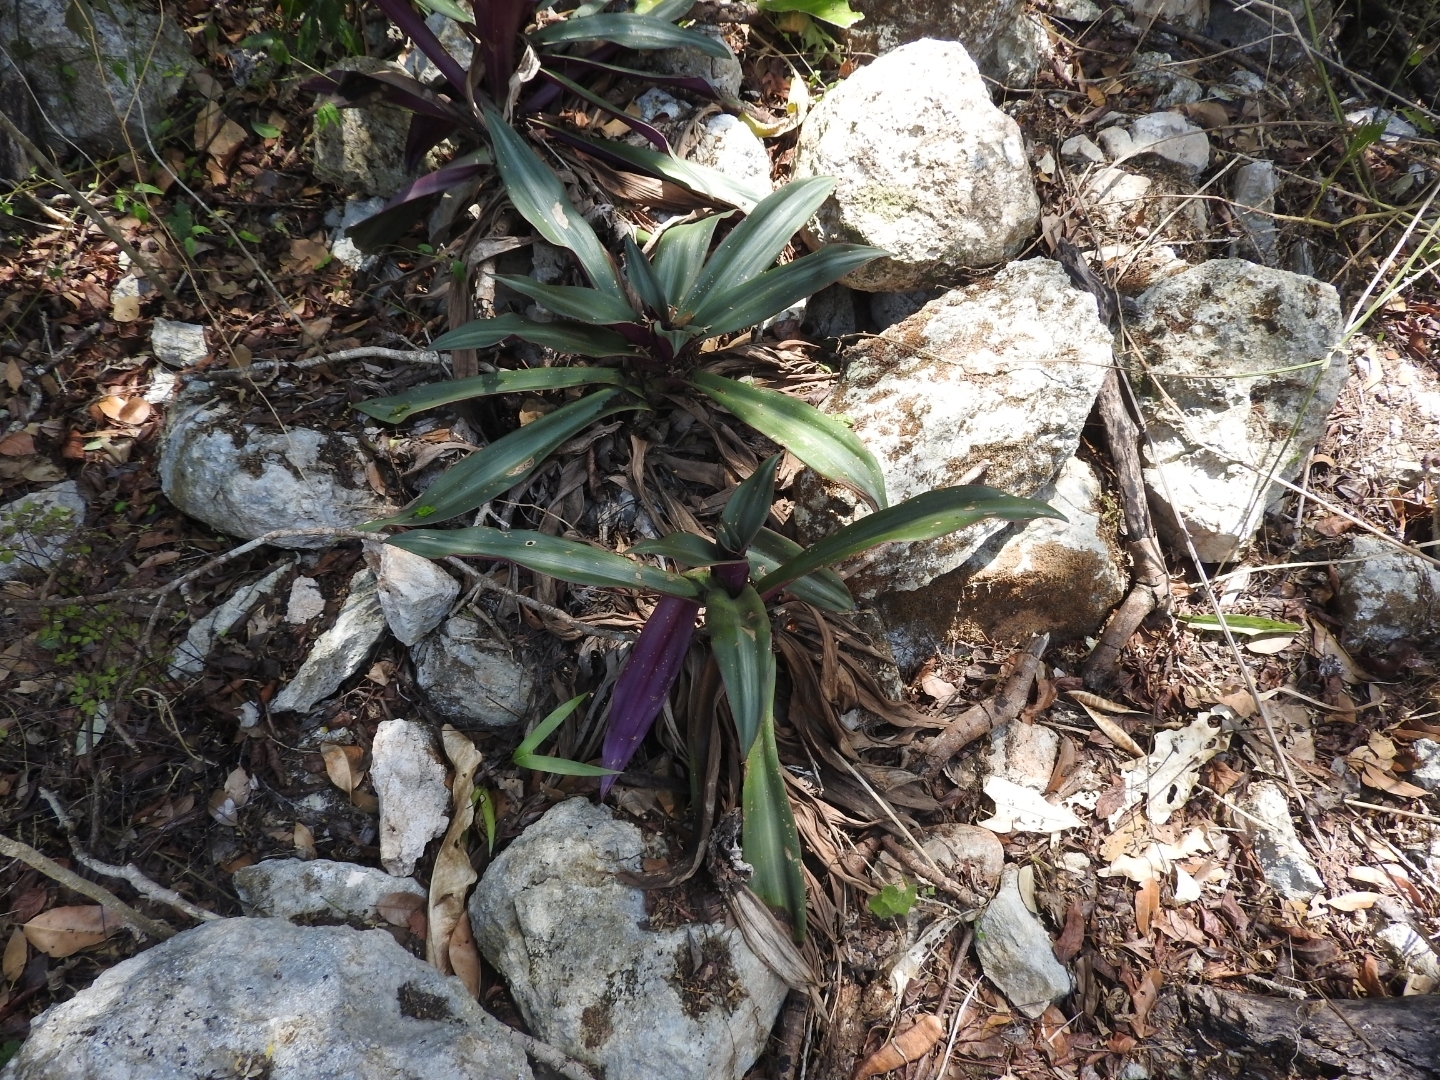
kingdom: Plantae
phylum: Tracheophyta
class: Liliopsida
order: Commelinales
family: Commelinaceae
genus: Tradescantia
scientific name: Tradescantia spathacea
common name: Boatlily
